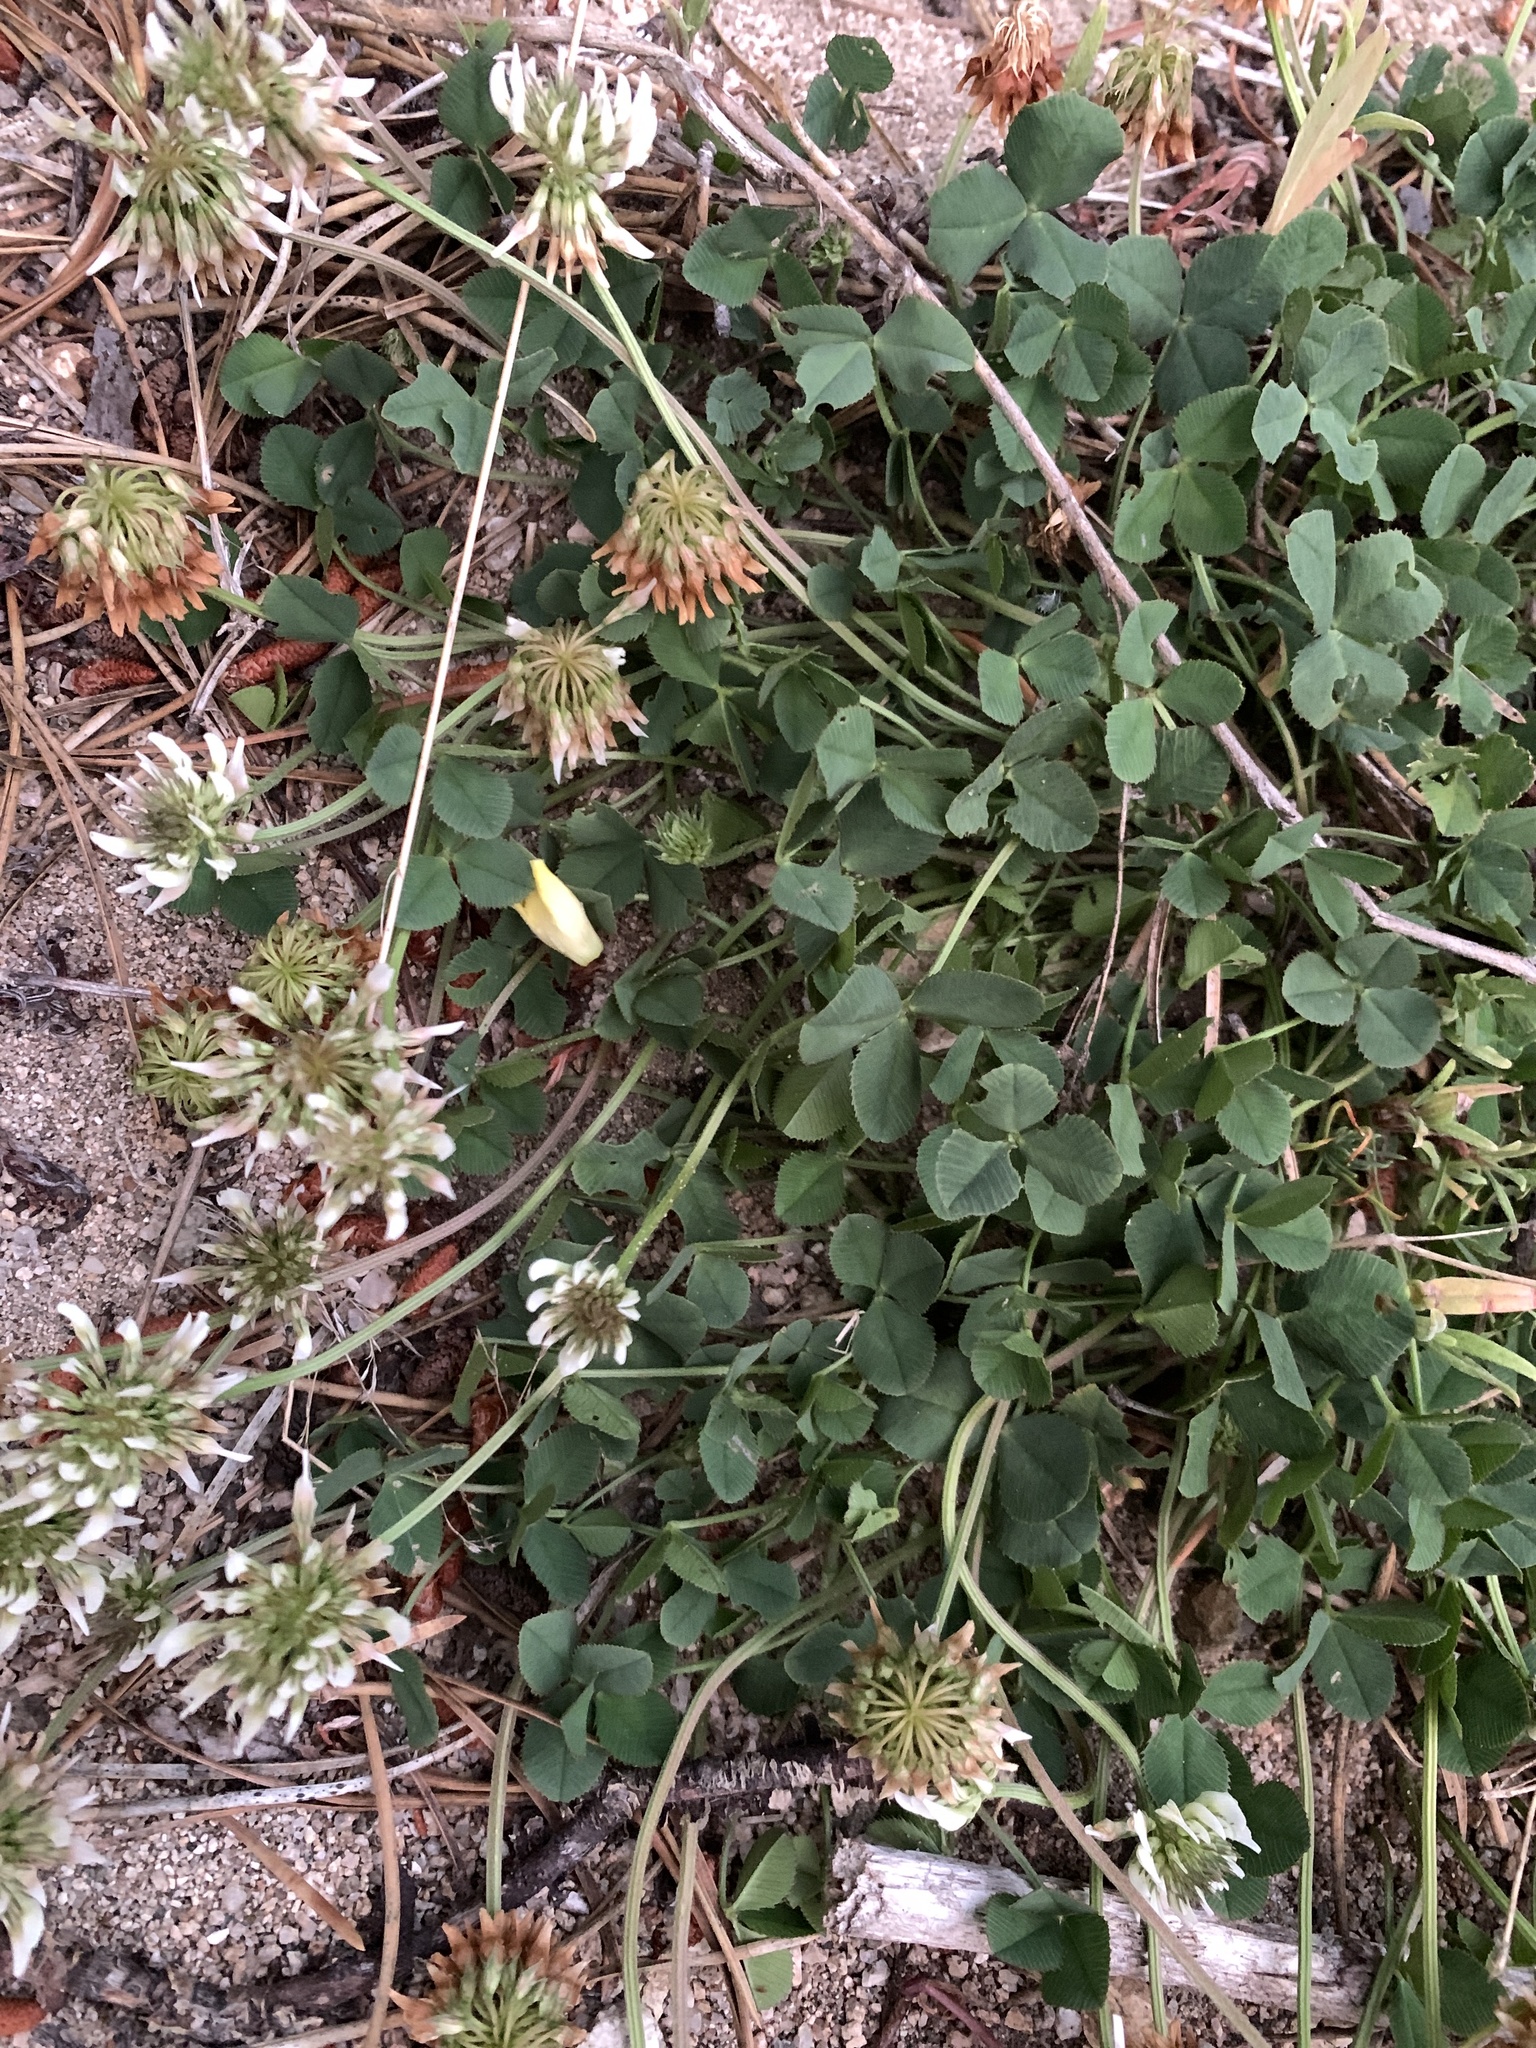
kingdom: Plantae
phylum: Tracheophyta
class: Magnoliopsida
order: Fabales
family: Fabaceae
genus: Trifolium
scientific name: Trifolium repens
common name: White clover
